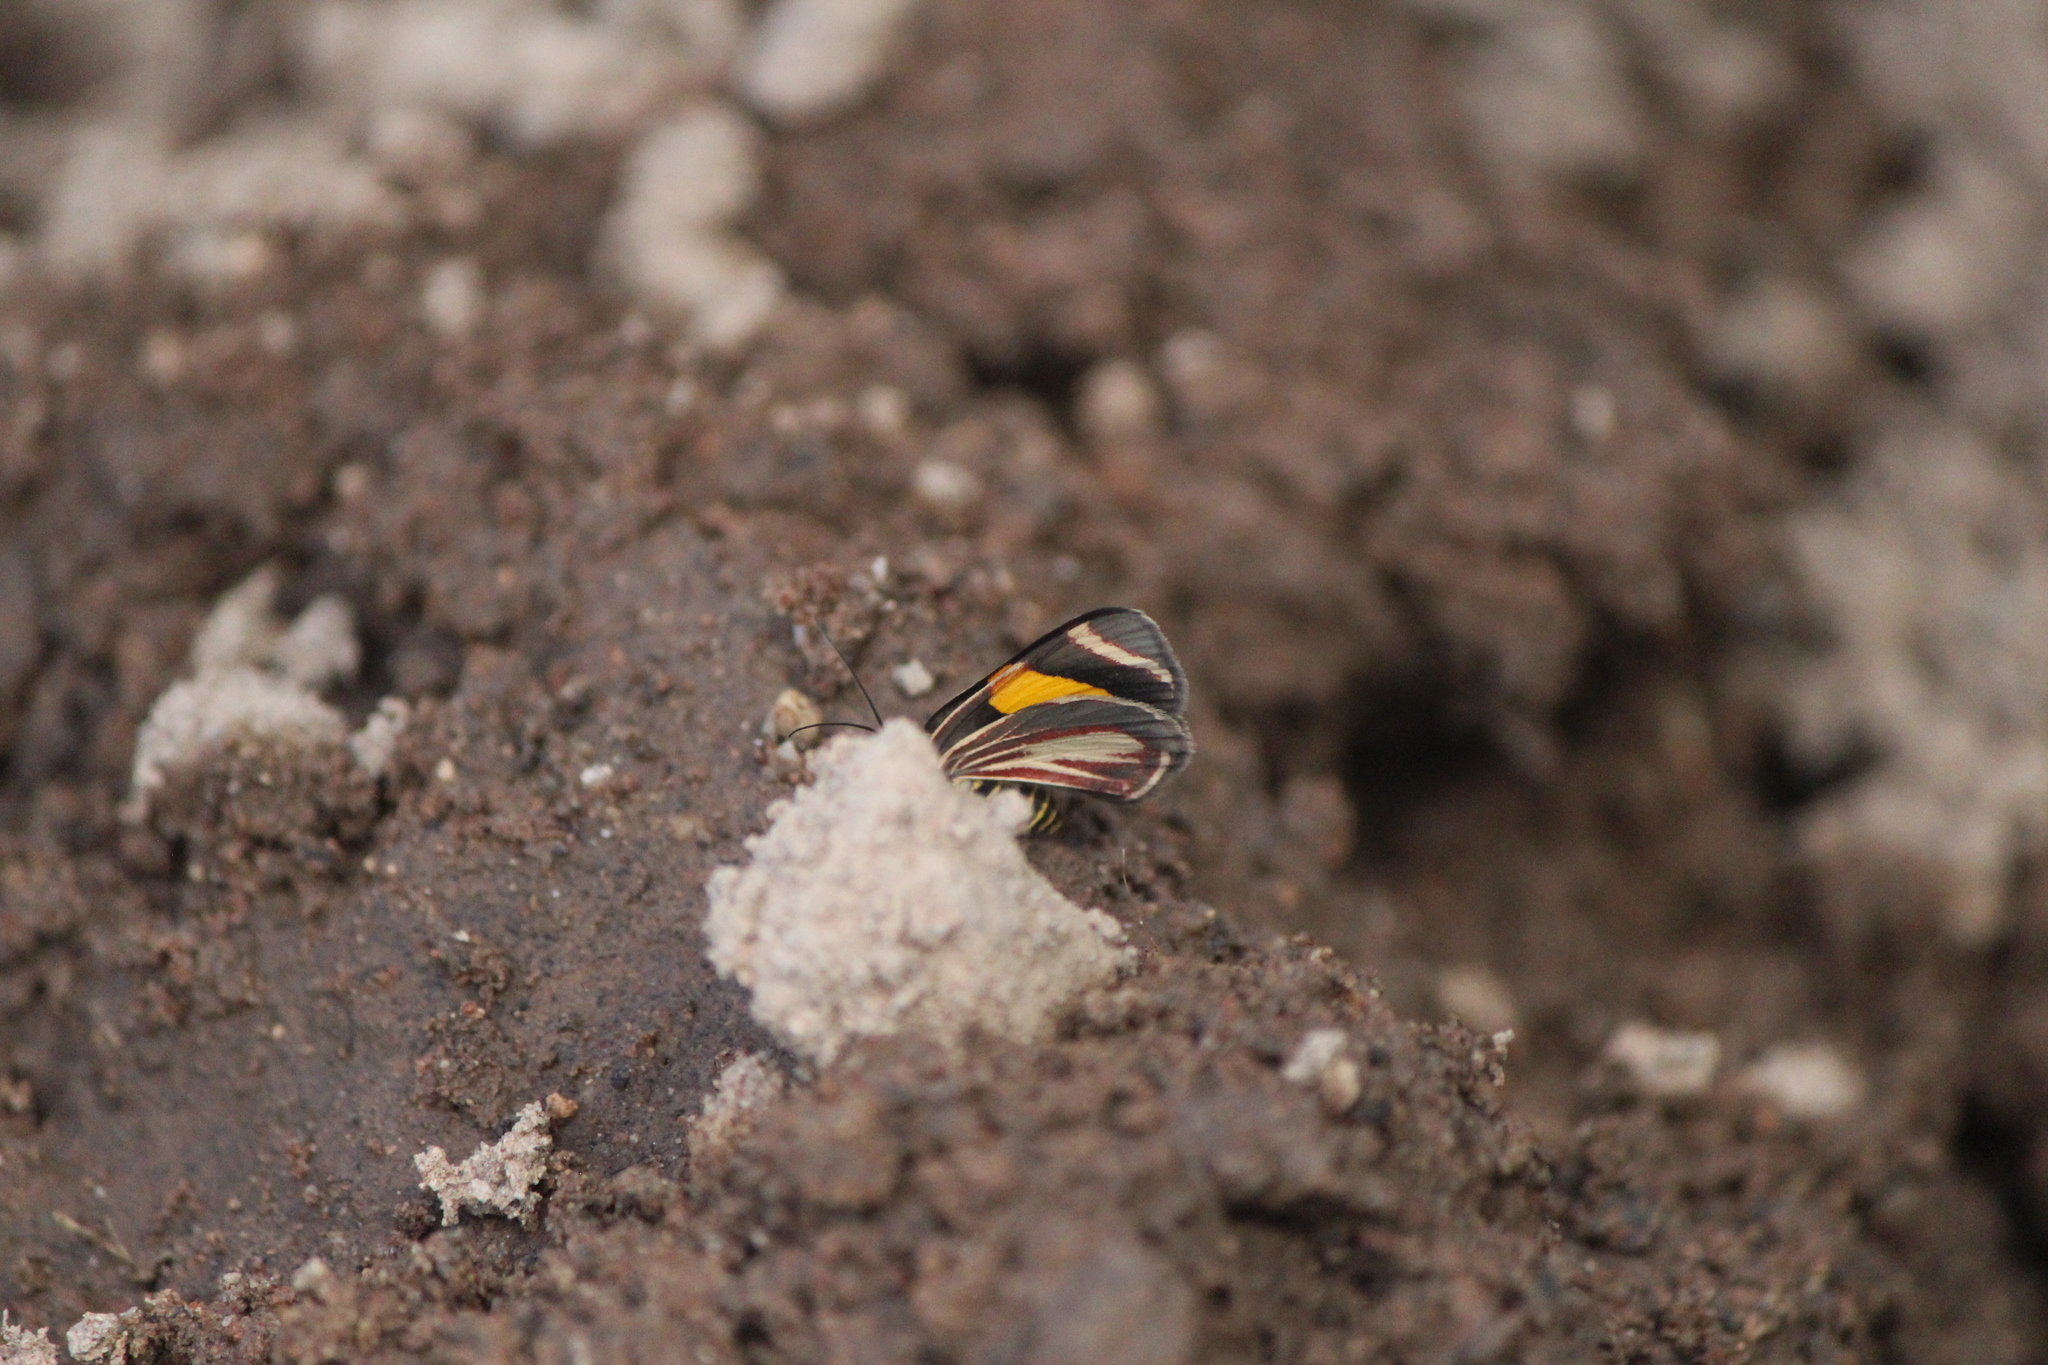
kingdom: Animalia
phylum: Arthropoda
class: Insecta
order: Lepidoptera
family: Geometridae
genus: Eutrepsia
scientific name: Eutrepsia haemataria
